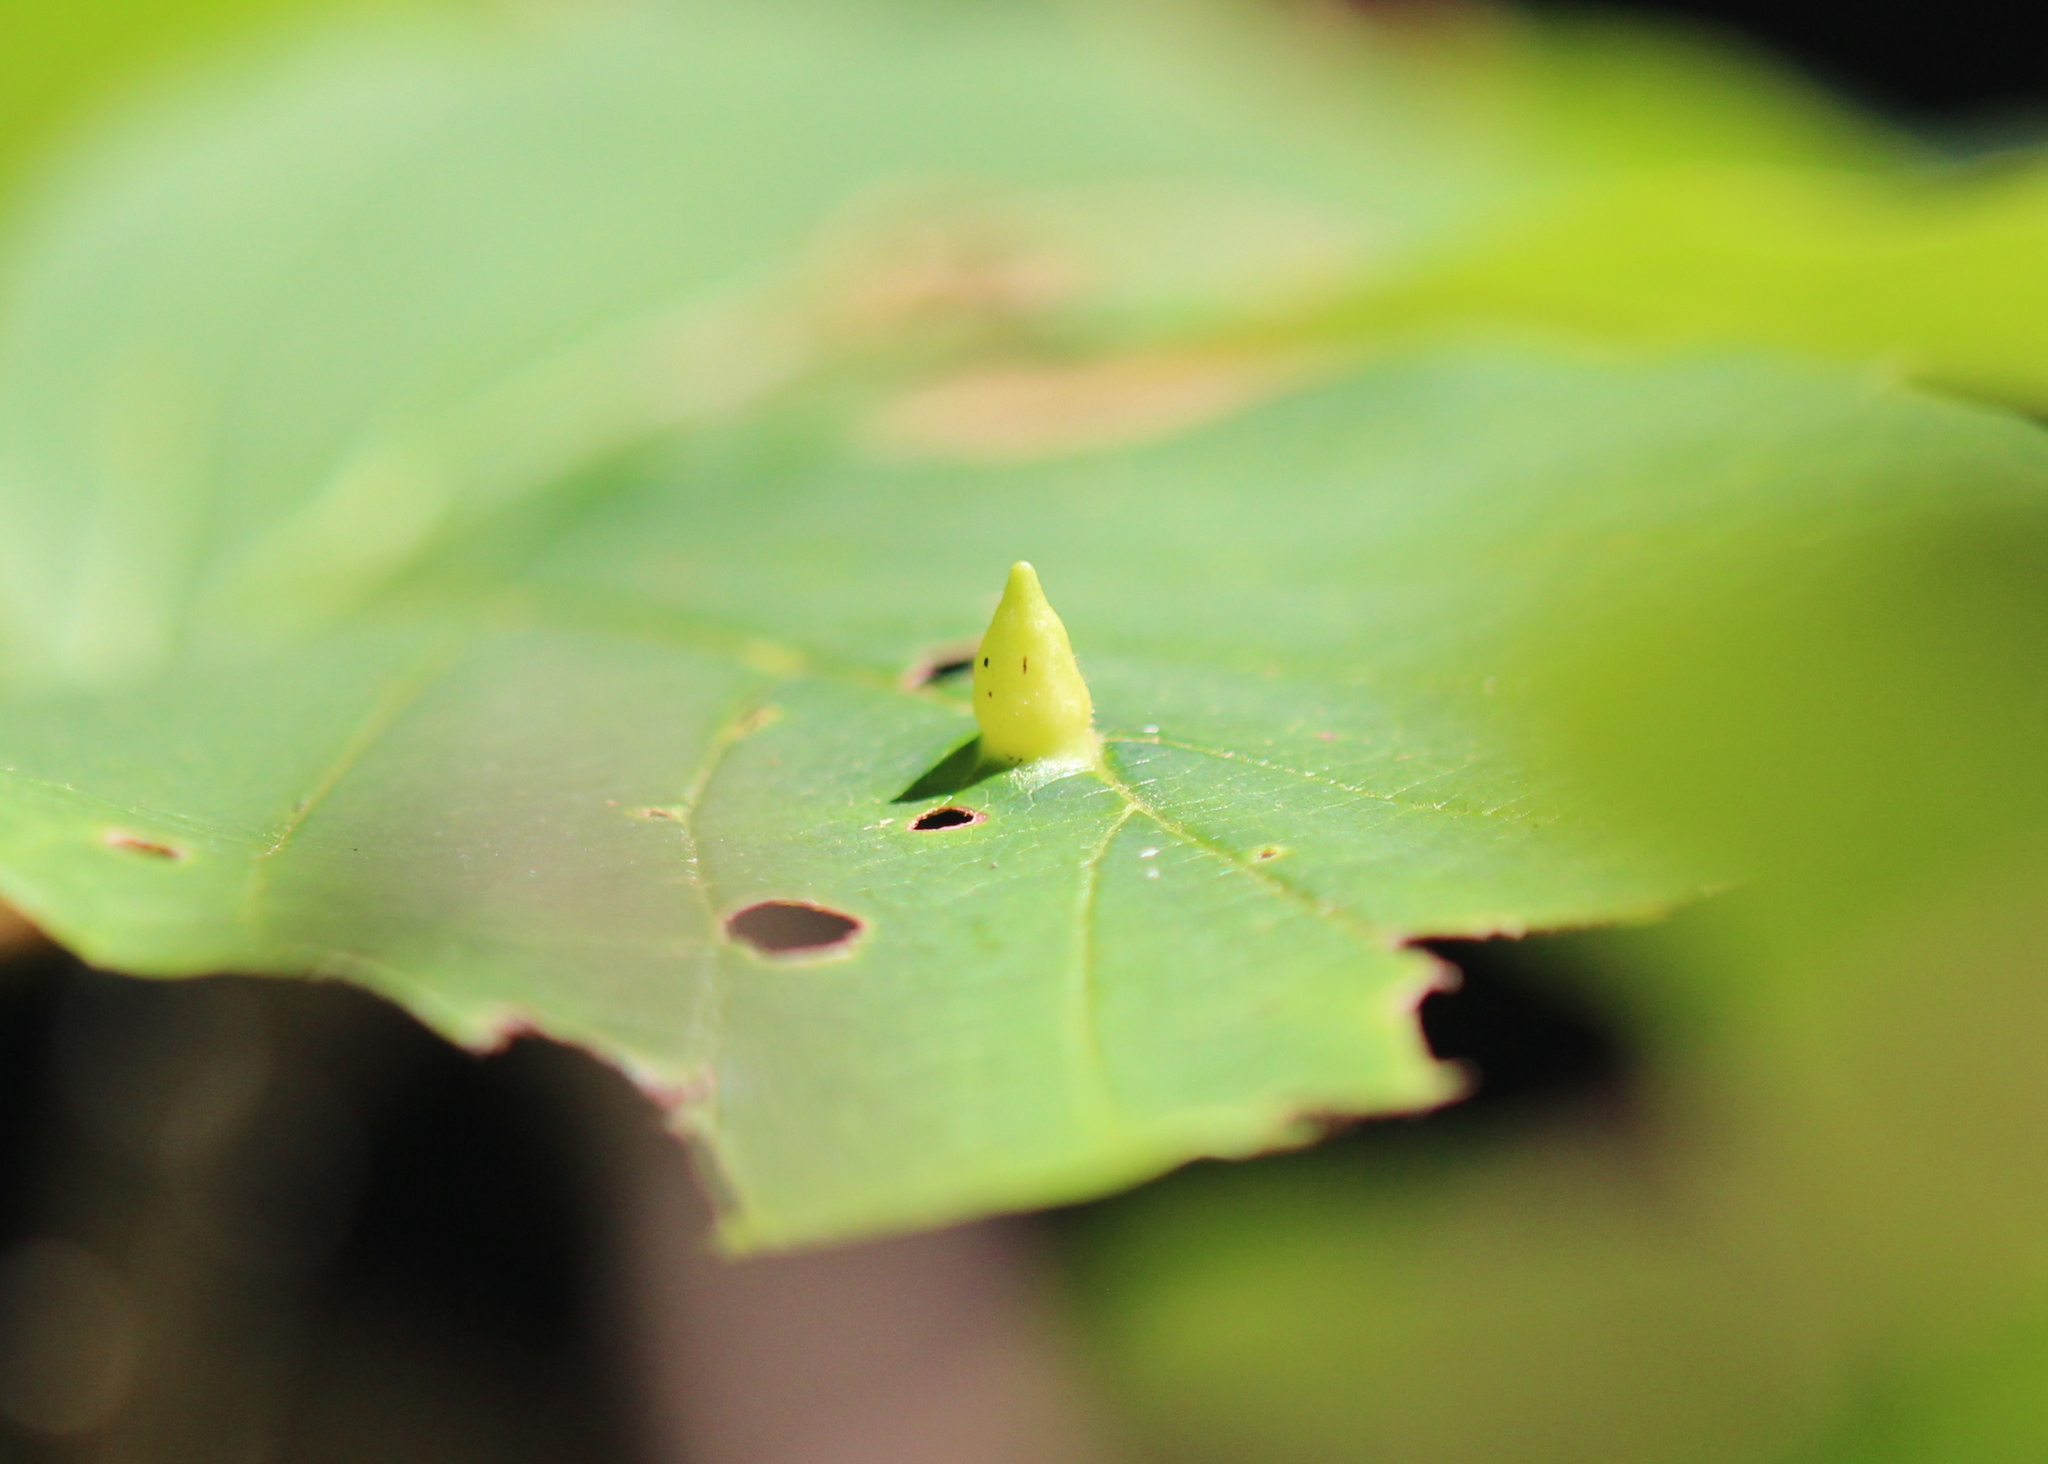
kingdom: Animalia
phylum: Arthropoda
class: Insecta
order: Hemiptera
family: Aphididae
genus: Hormaphis
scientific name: Hormaphis hamamelidis
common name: Witch-hazel cone gall aphid
